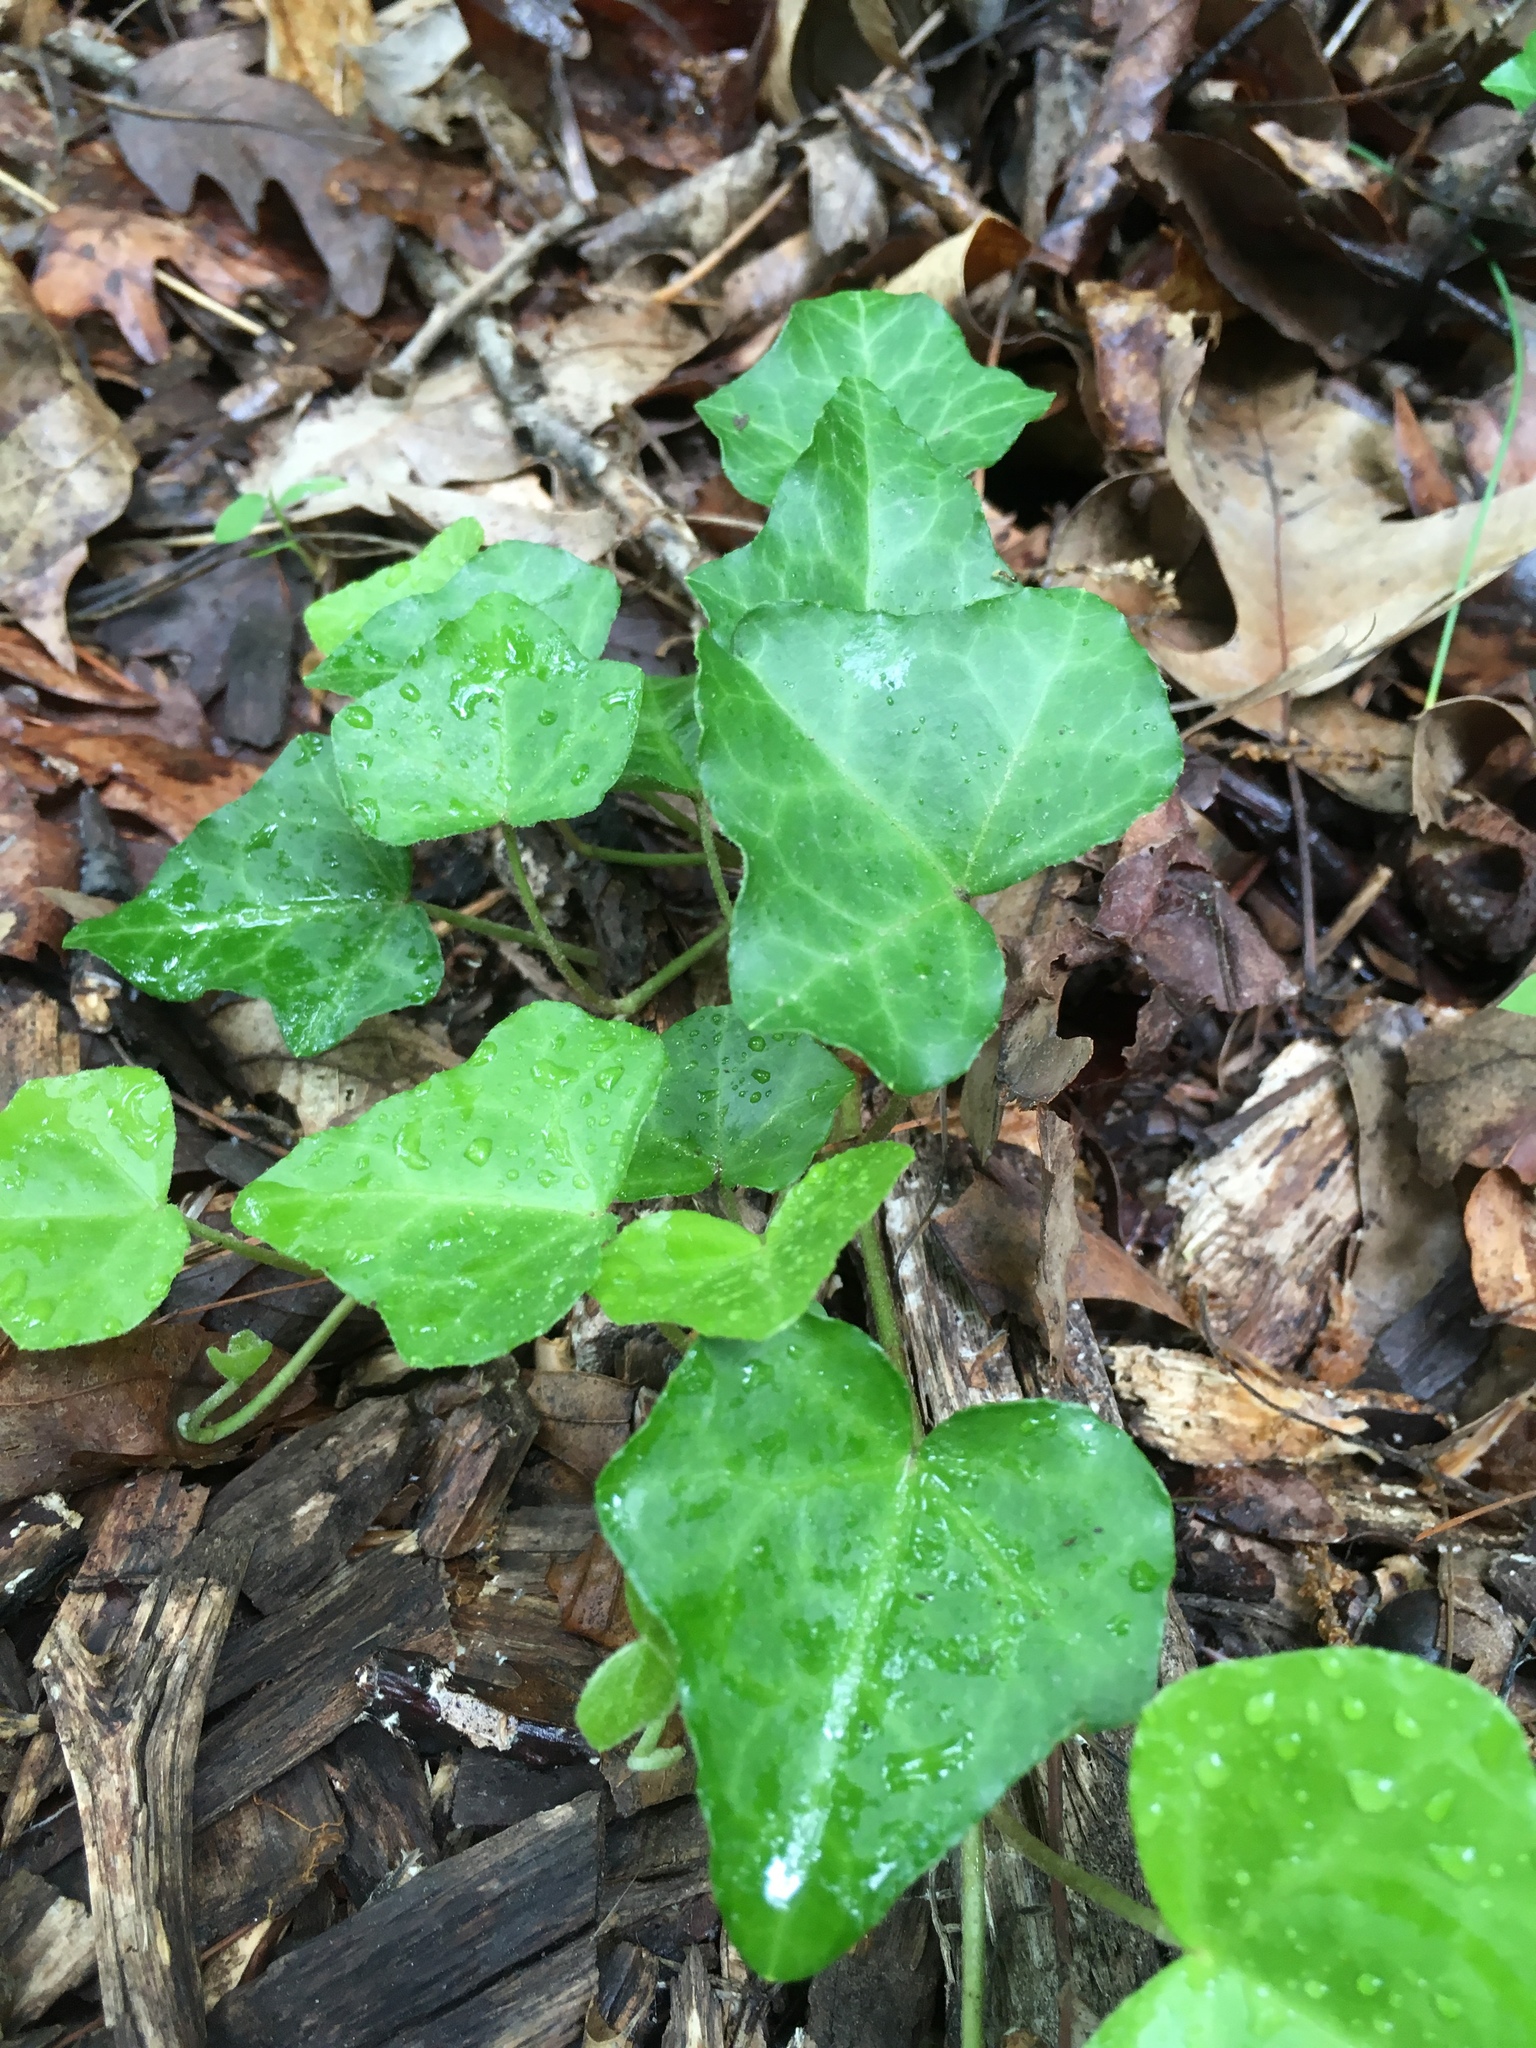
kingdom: Plantae
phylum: Tracheophyta
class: Magnoliopsida
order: Apiales
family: Araliaceae
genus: Hedera
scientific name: Hedera helix
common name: Ivy
